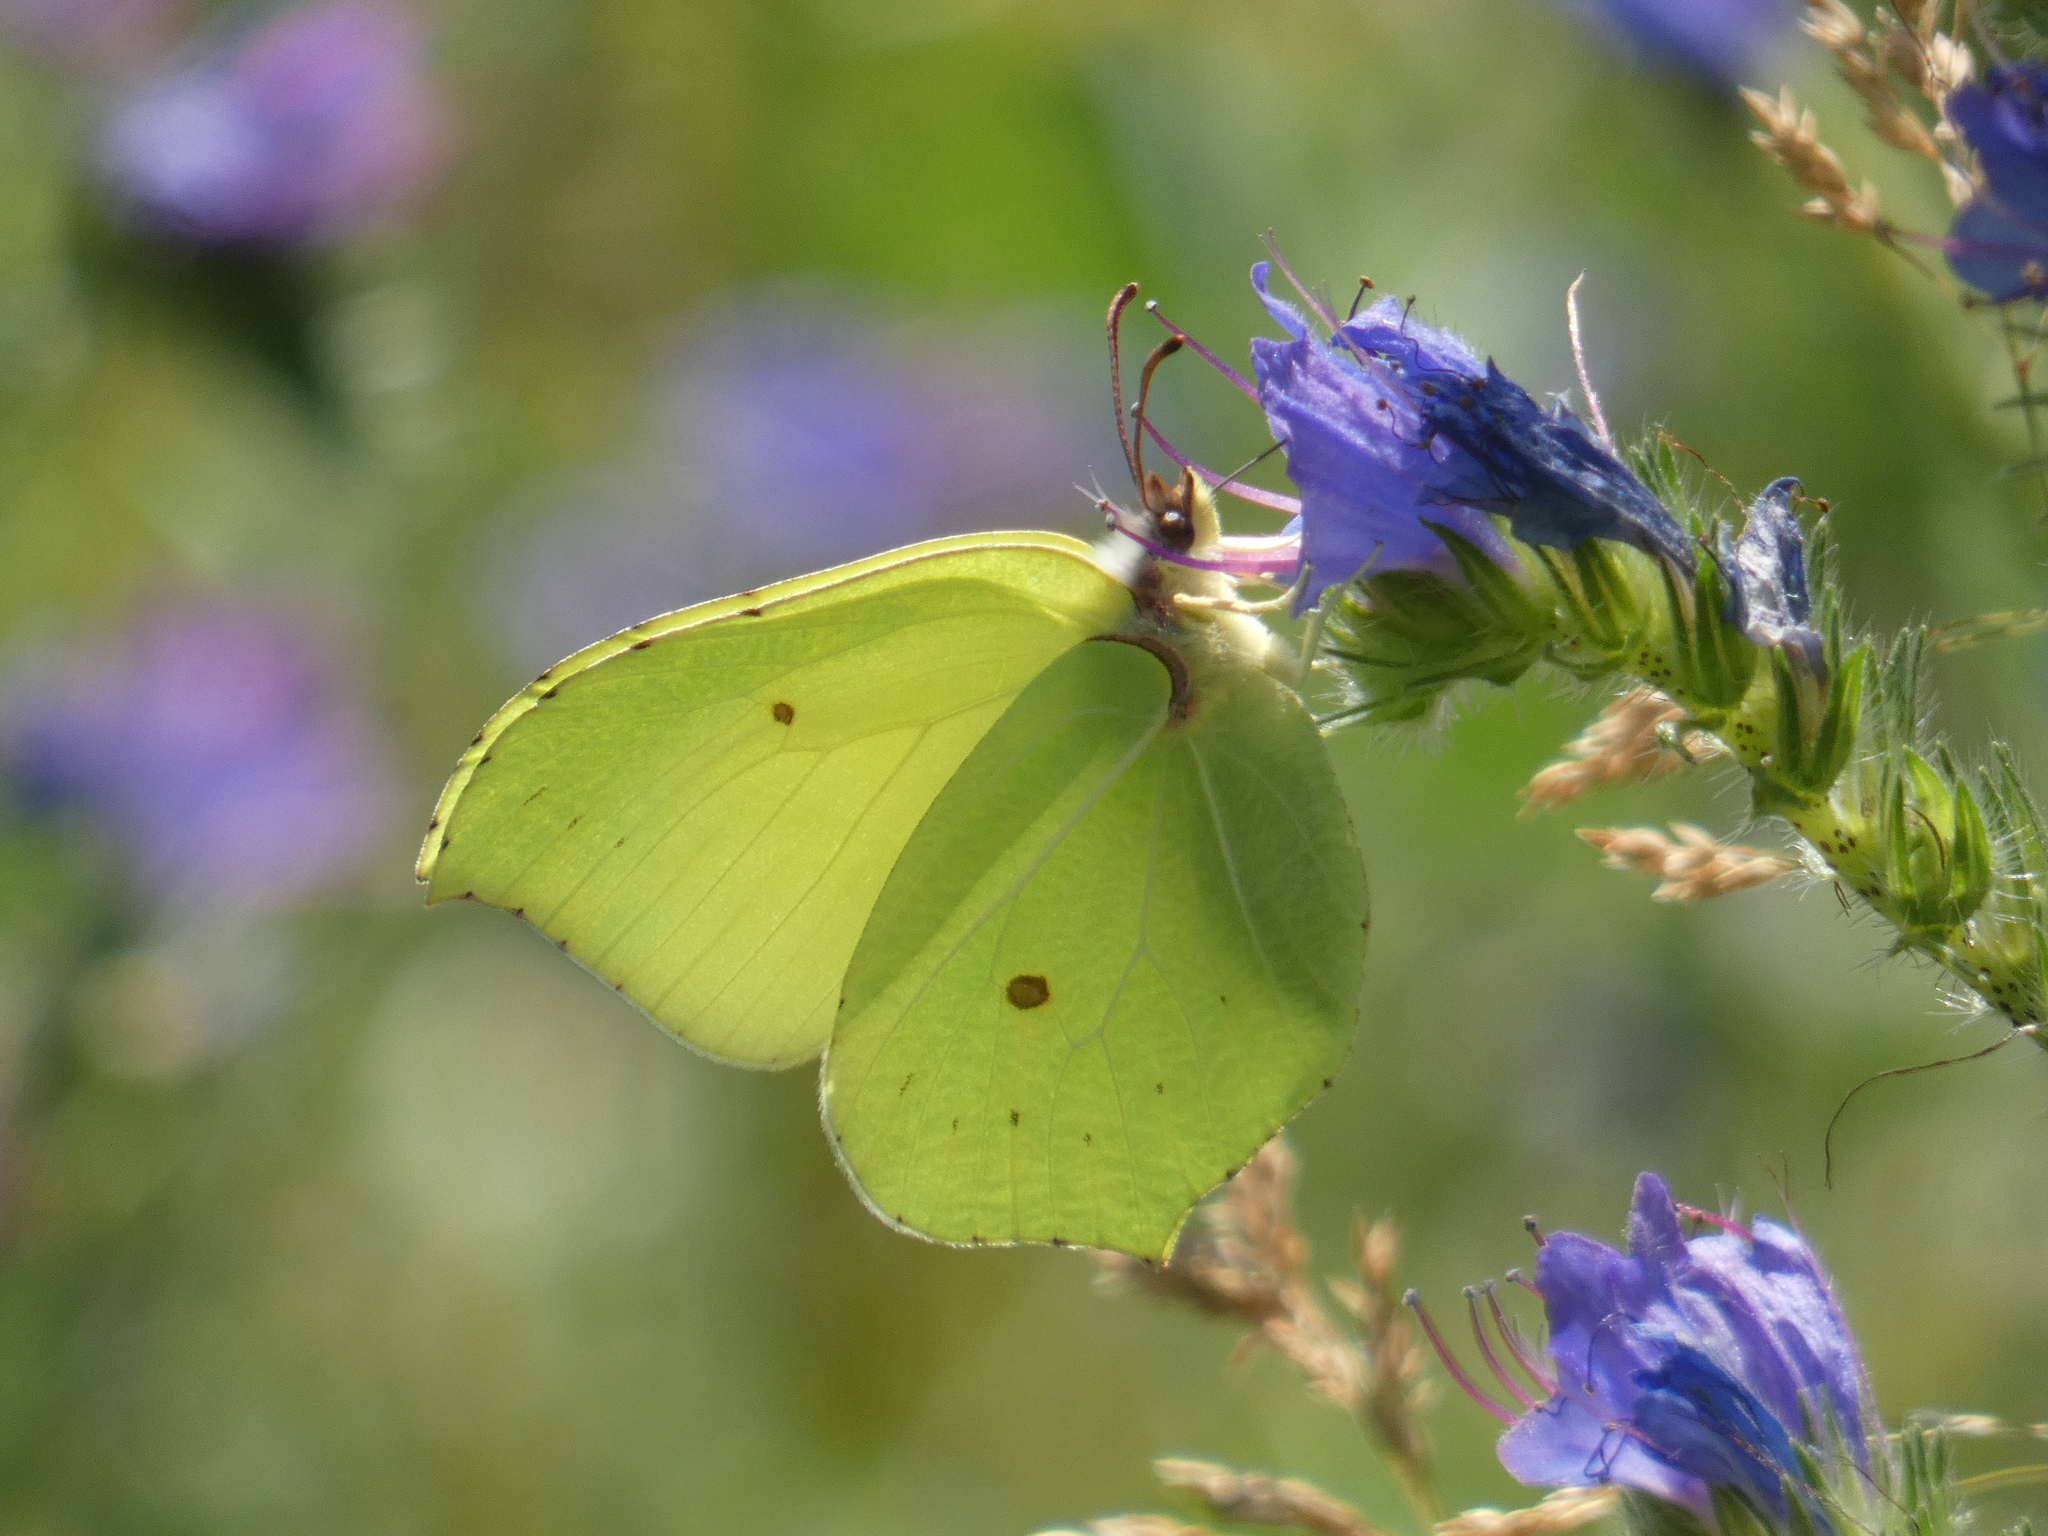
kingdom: Animalia
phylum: Arthropoda
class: Insecta
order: Lepidoptera
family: Pieridae
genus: Gonepteryx
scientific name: Gonepteryx rhamni
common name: Brimstone
